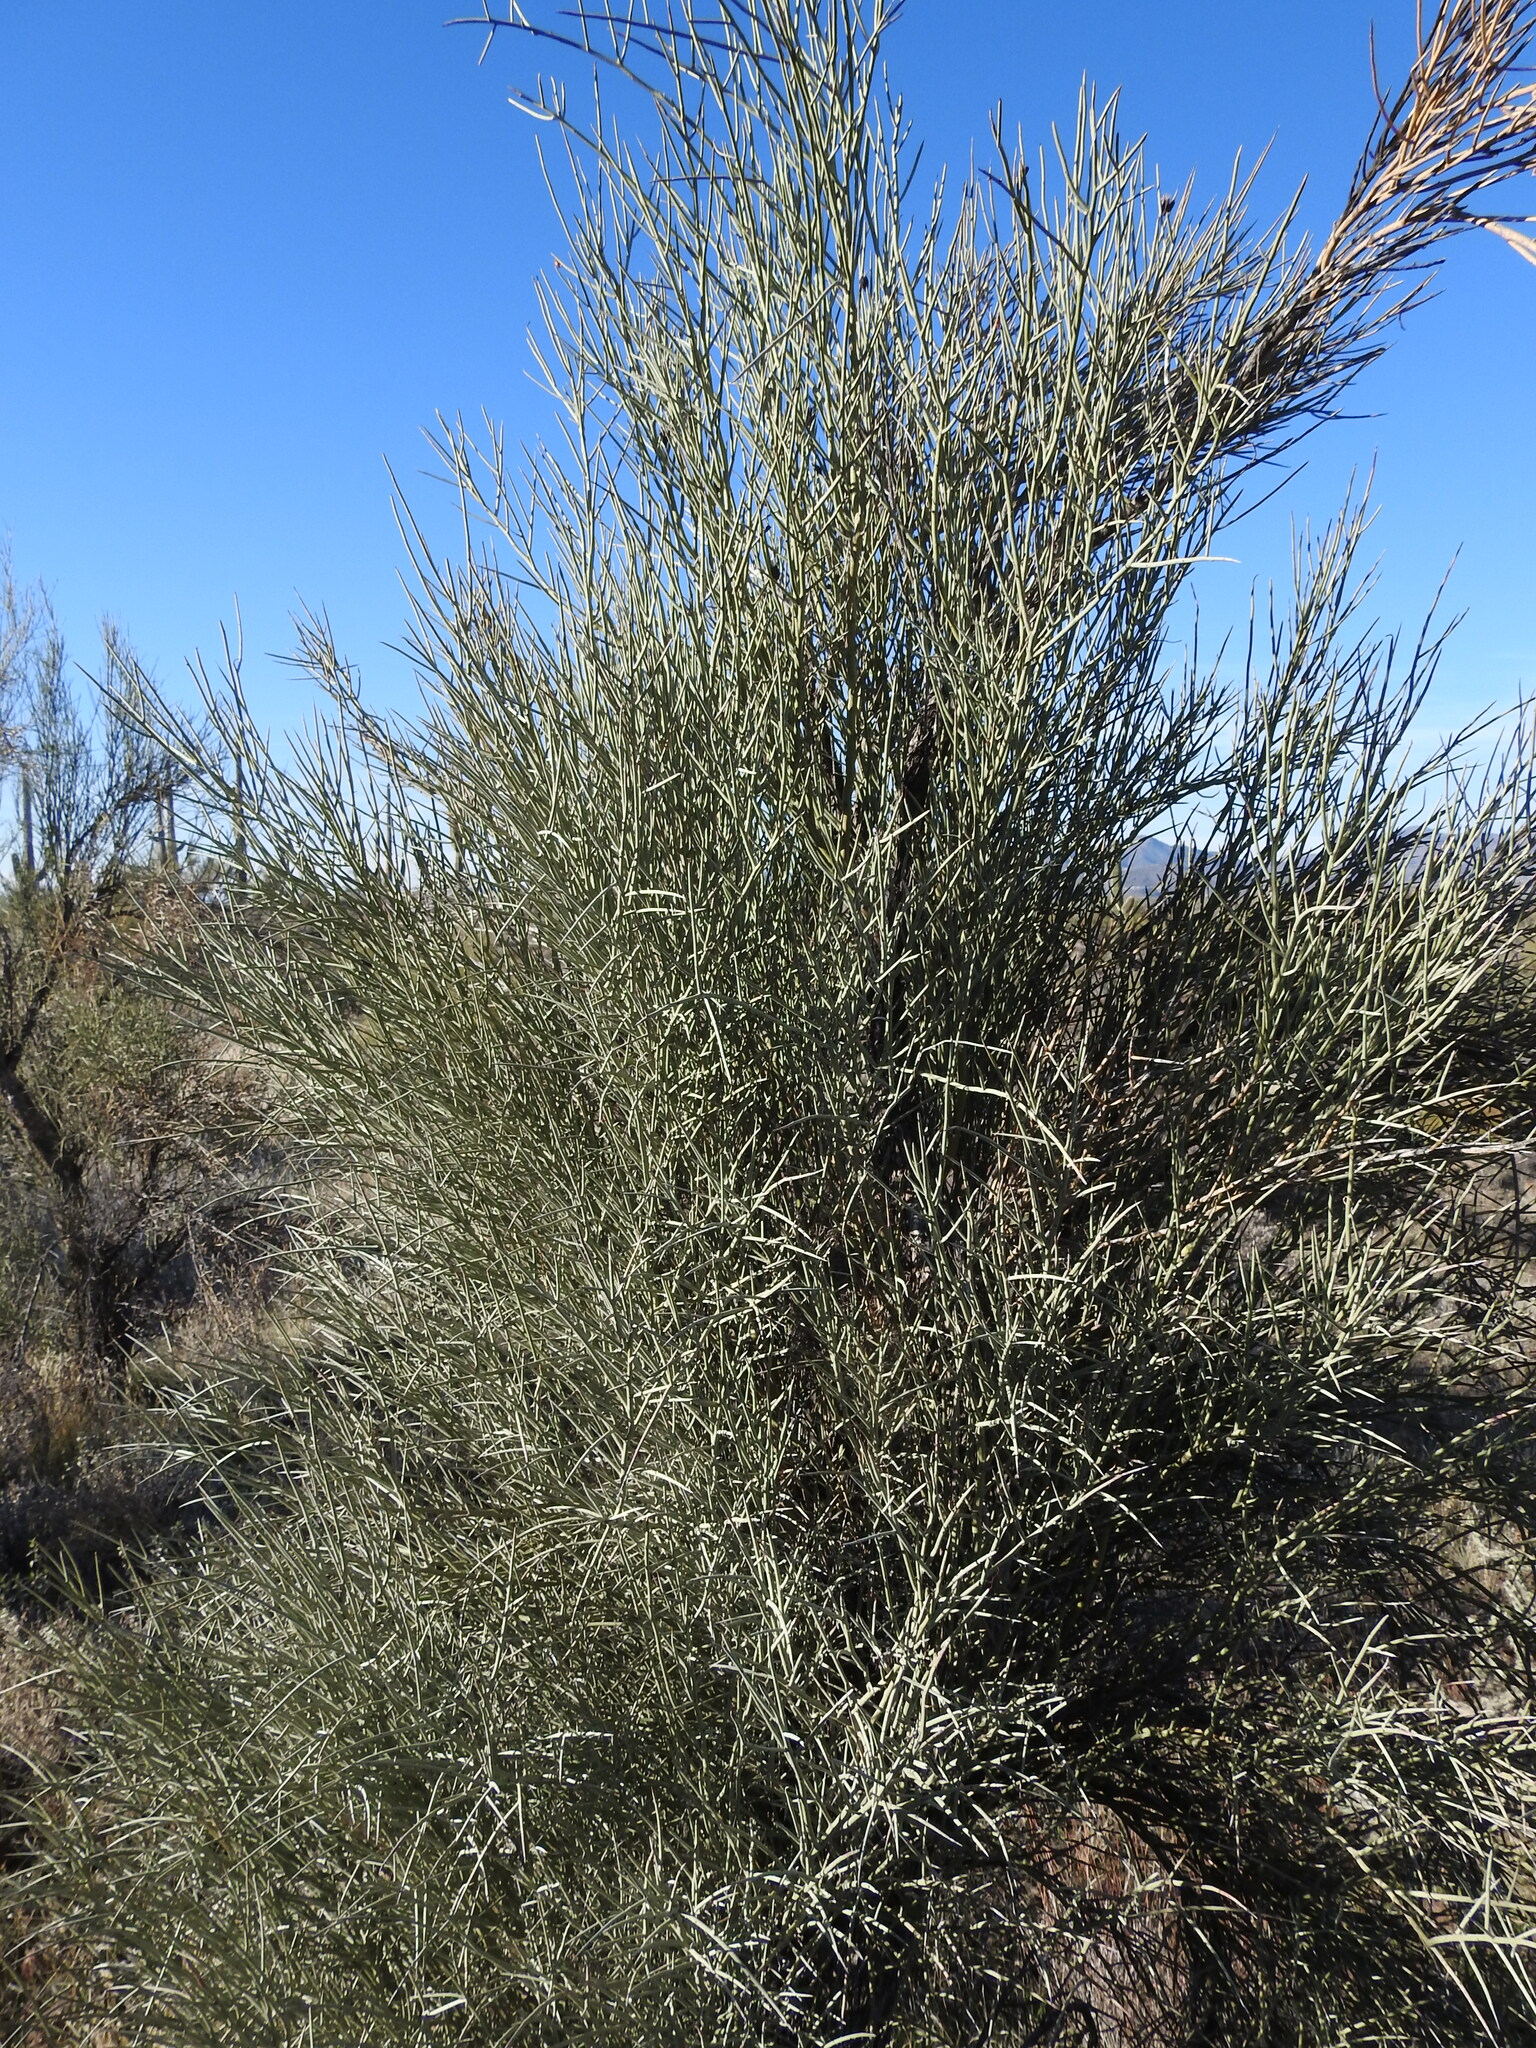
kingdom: Plantae
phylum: Tracheophyta
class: Magnoliopsida
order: Celastrales
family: Celastraceae
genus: Canotia
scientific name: Canotia holacantha
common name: Crucifixion thorns
